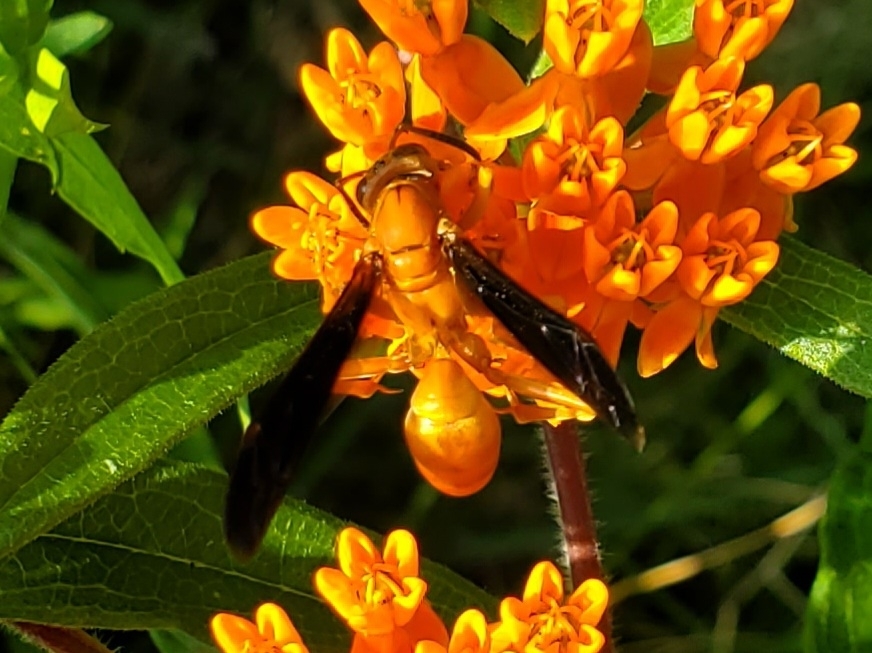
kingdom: Animalia
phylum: Arthropoda
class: Insecta
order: Hymenoptera
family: Eumenidae
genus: Polistes
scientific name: Polistes carolina
